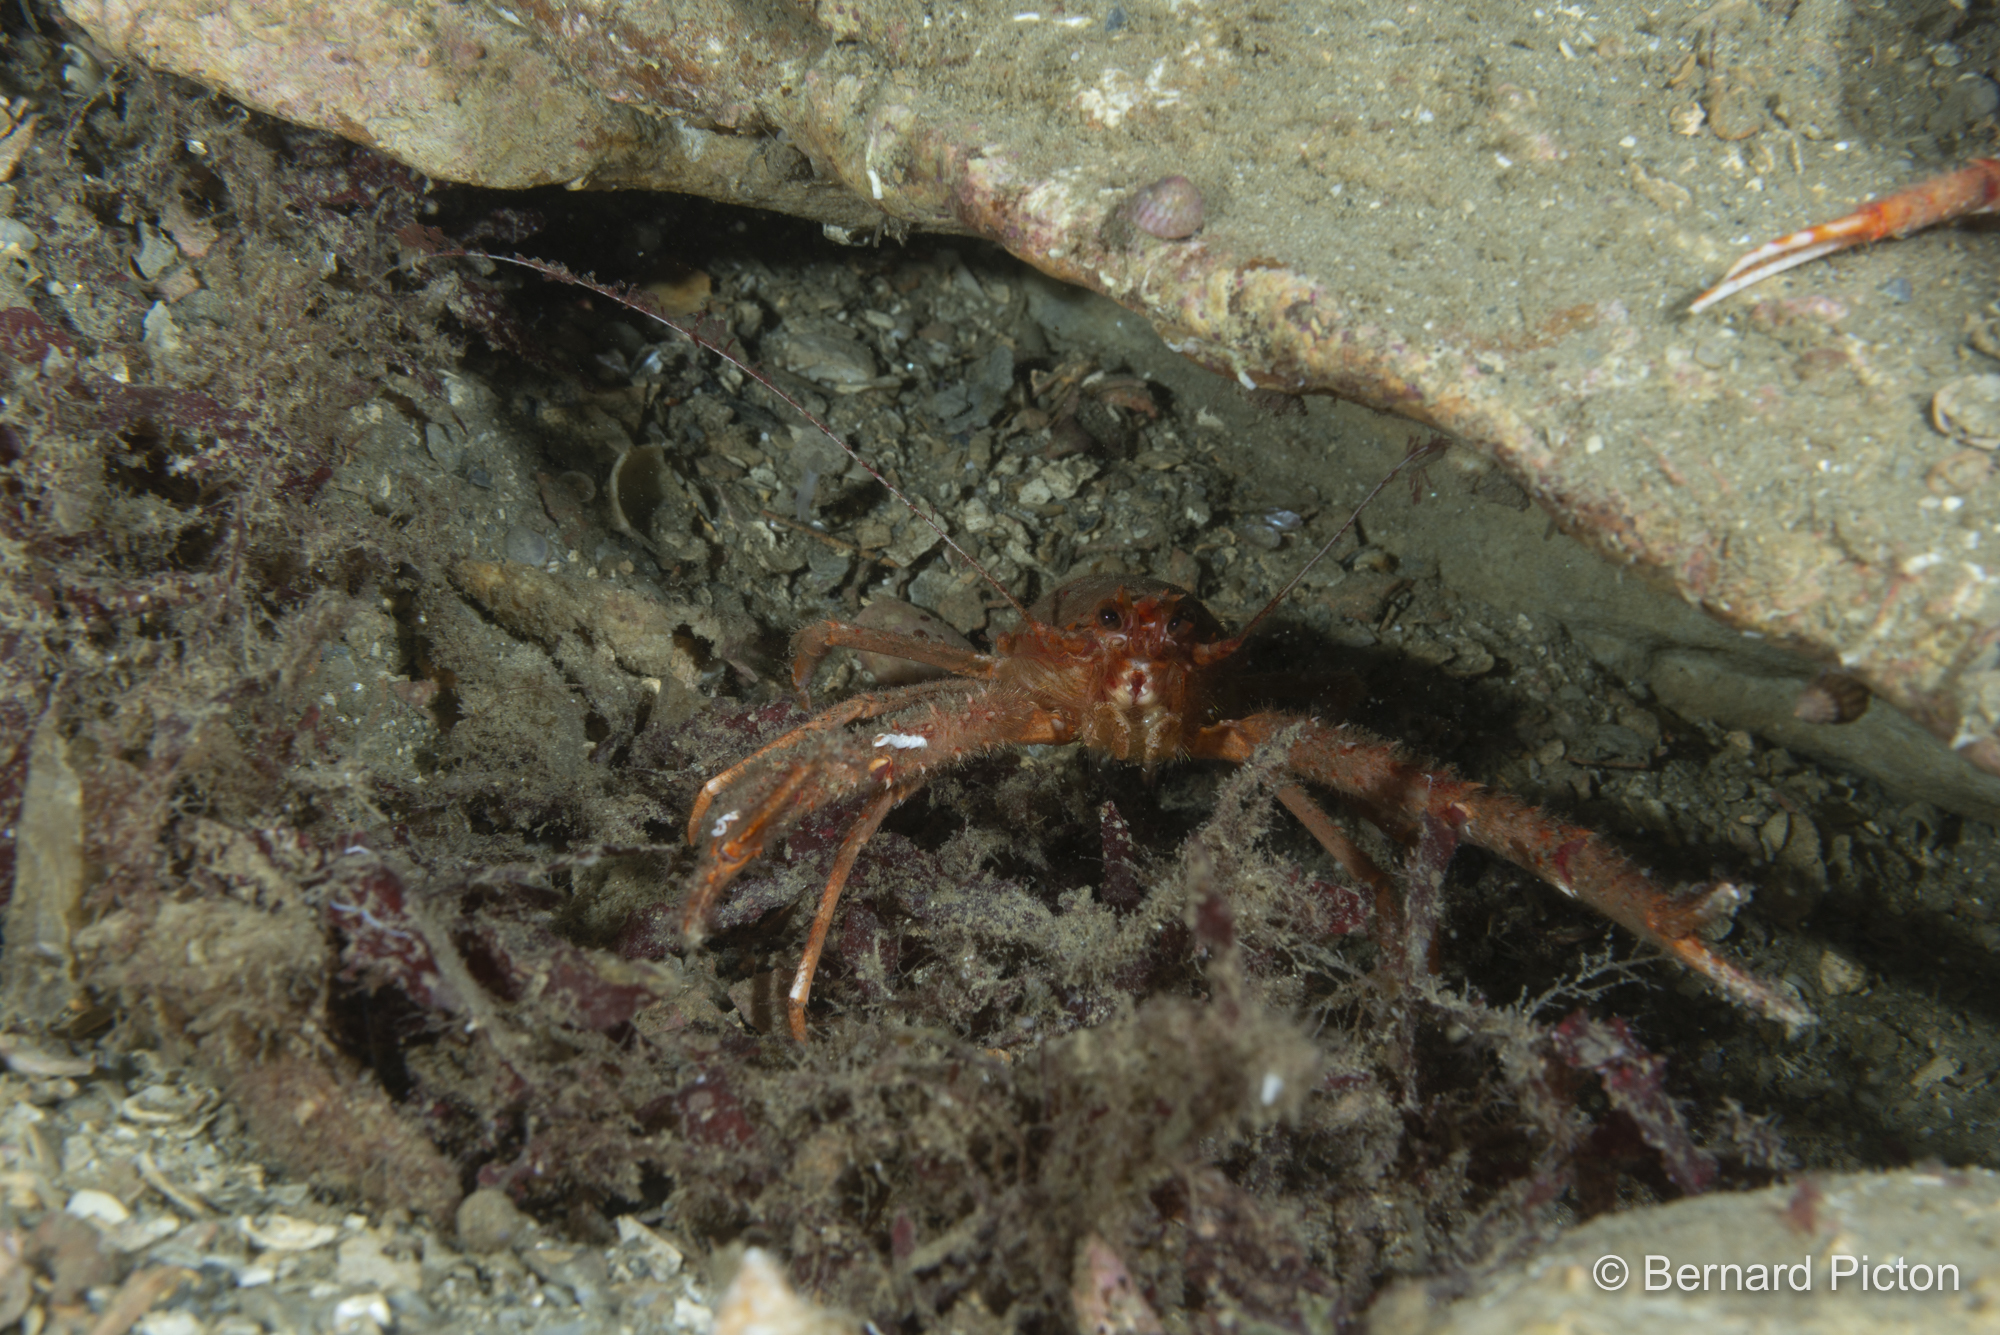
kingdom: Animalia
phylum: Arthropoda
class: Malacostraca
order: Decapoda
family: Munididae
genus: Munida
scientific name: Munida rugosa
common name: Rugose squat lobster
